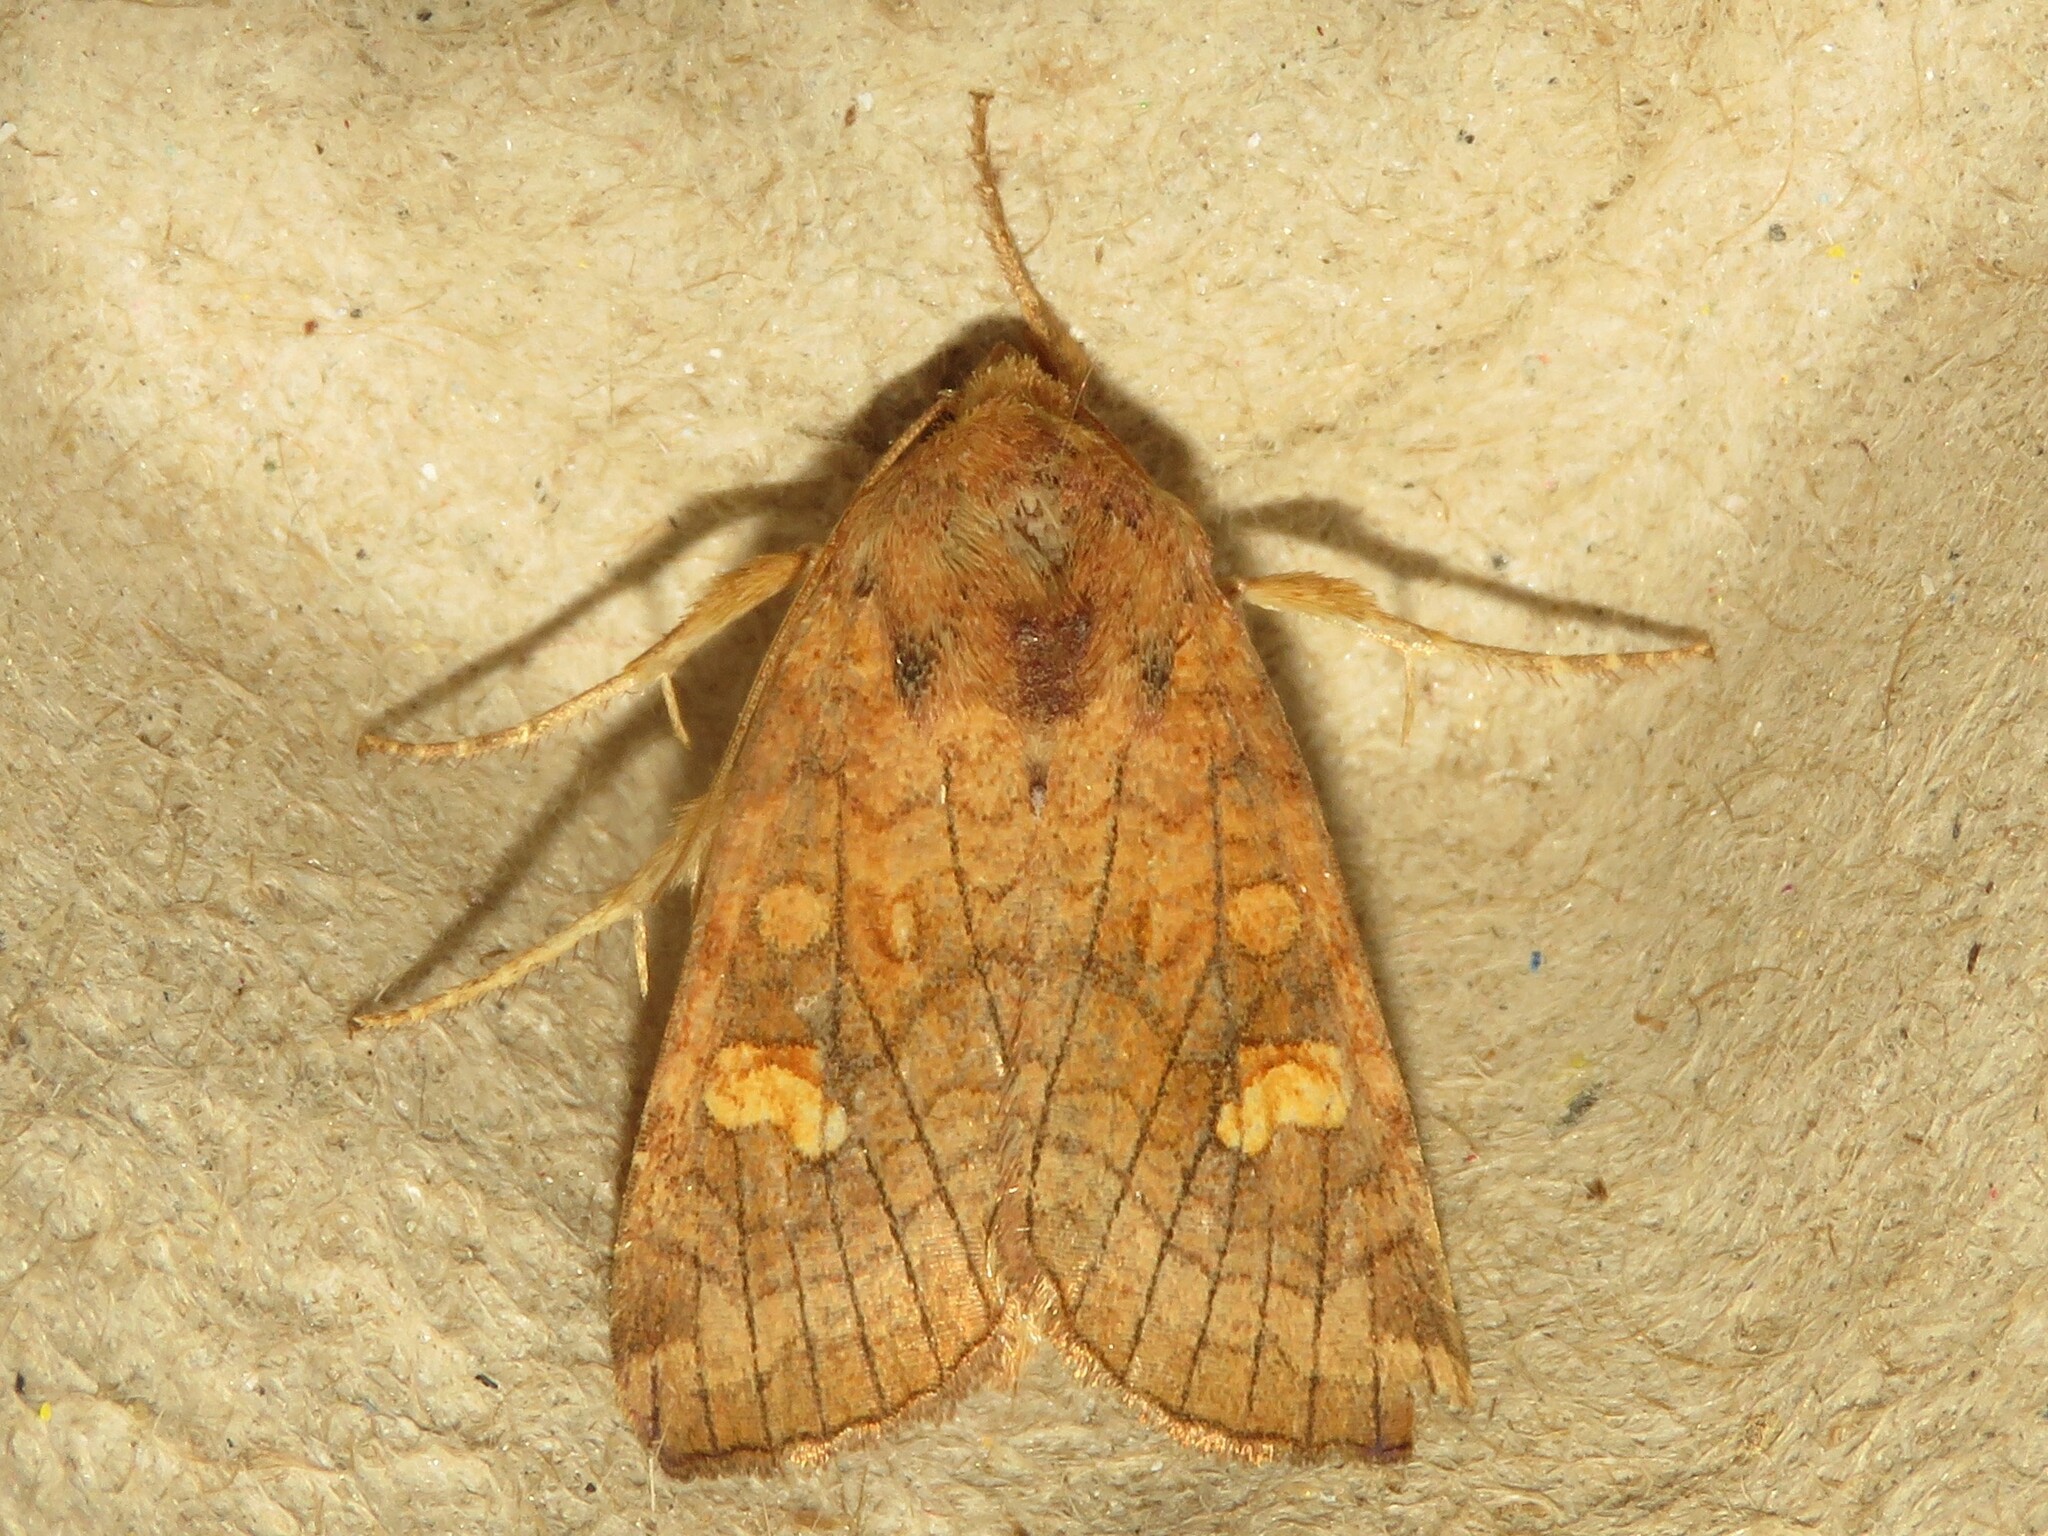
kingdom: Animalia
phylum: Arthropoda
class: Insecta
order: Lepidoptera
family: Noctuidae
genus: Amphipoea
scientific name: Amphipoea americana
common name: American ear moth
